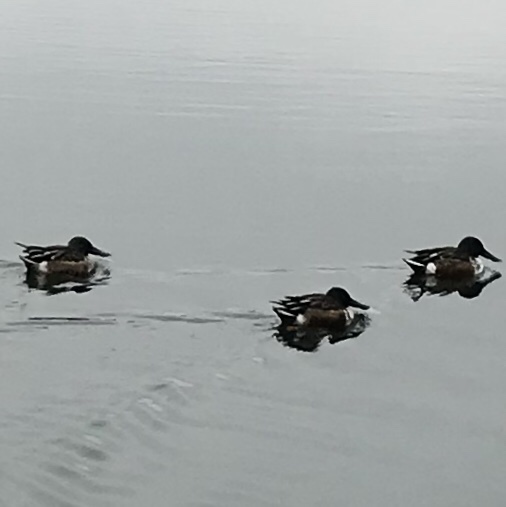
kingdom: Animalia
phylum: Chordata
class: Aves
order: Anseriformes
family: Anatidae
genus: Spatula
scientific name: Spatula clypeata
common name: Northern shoveler
